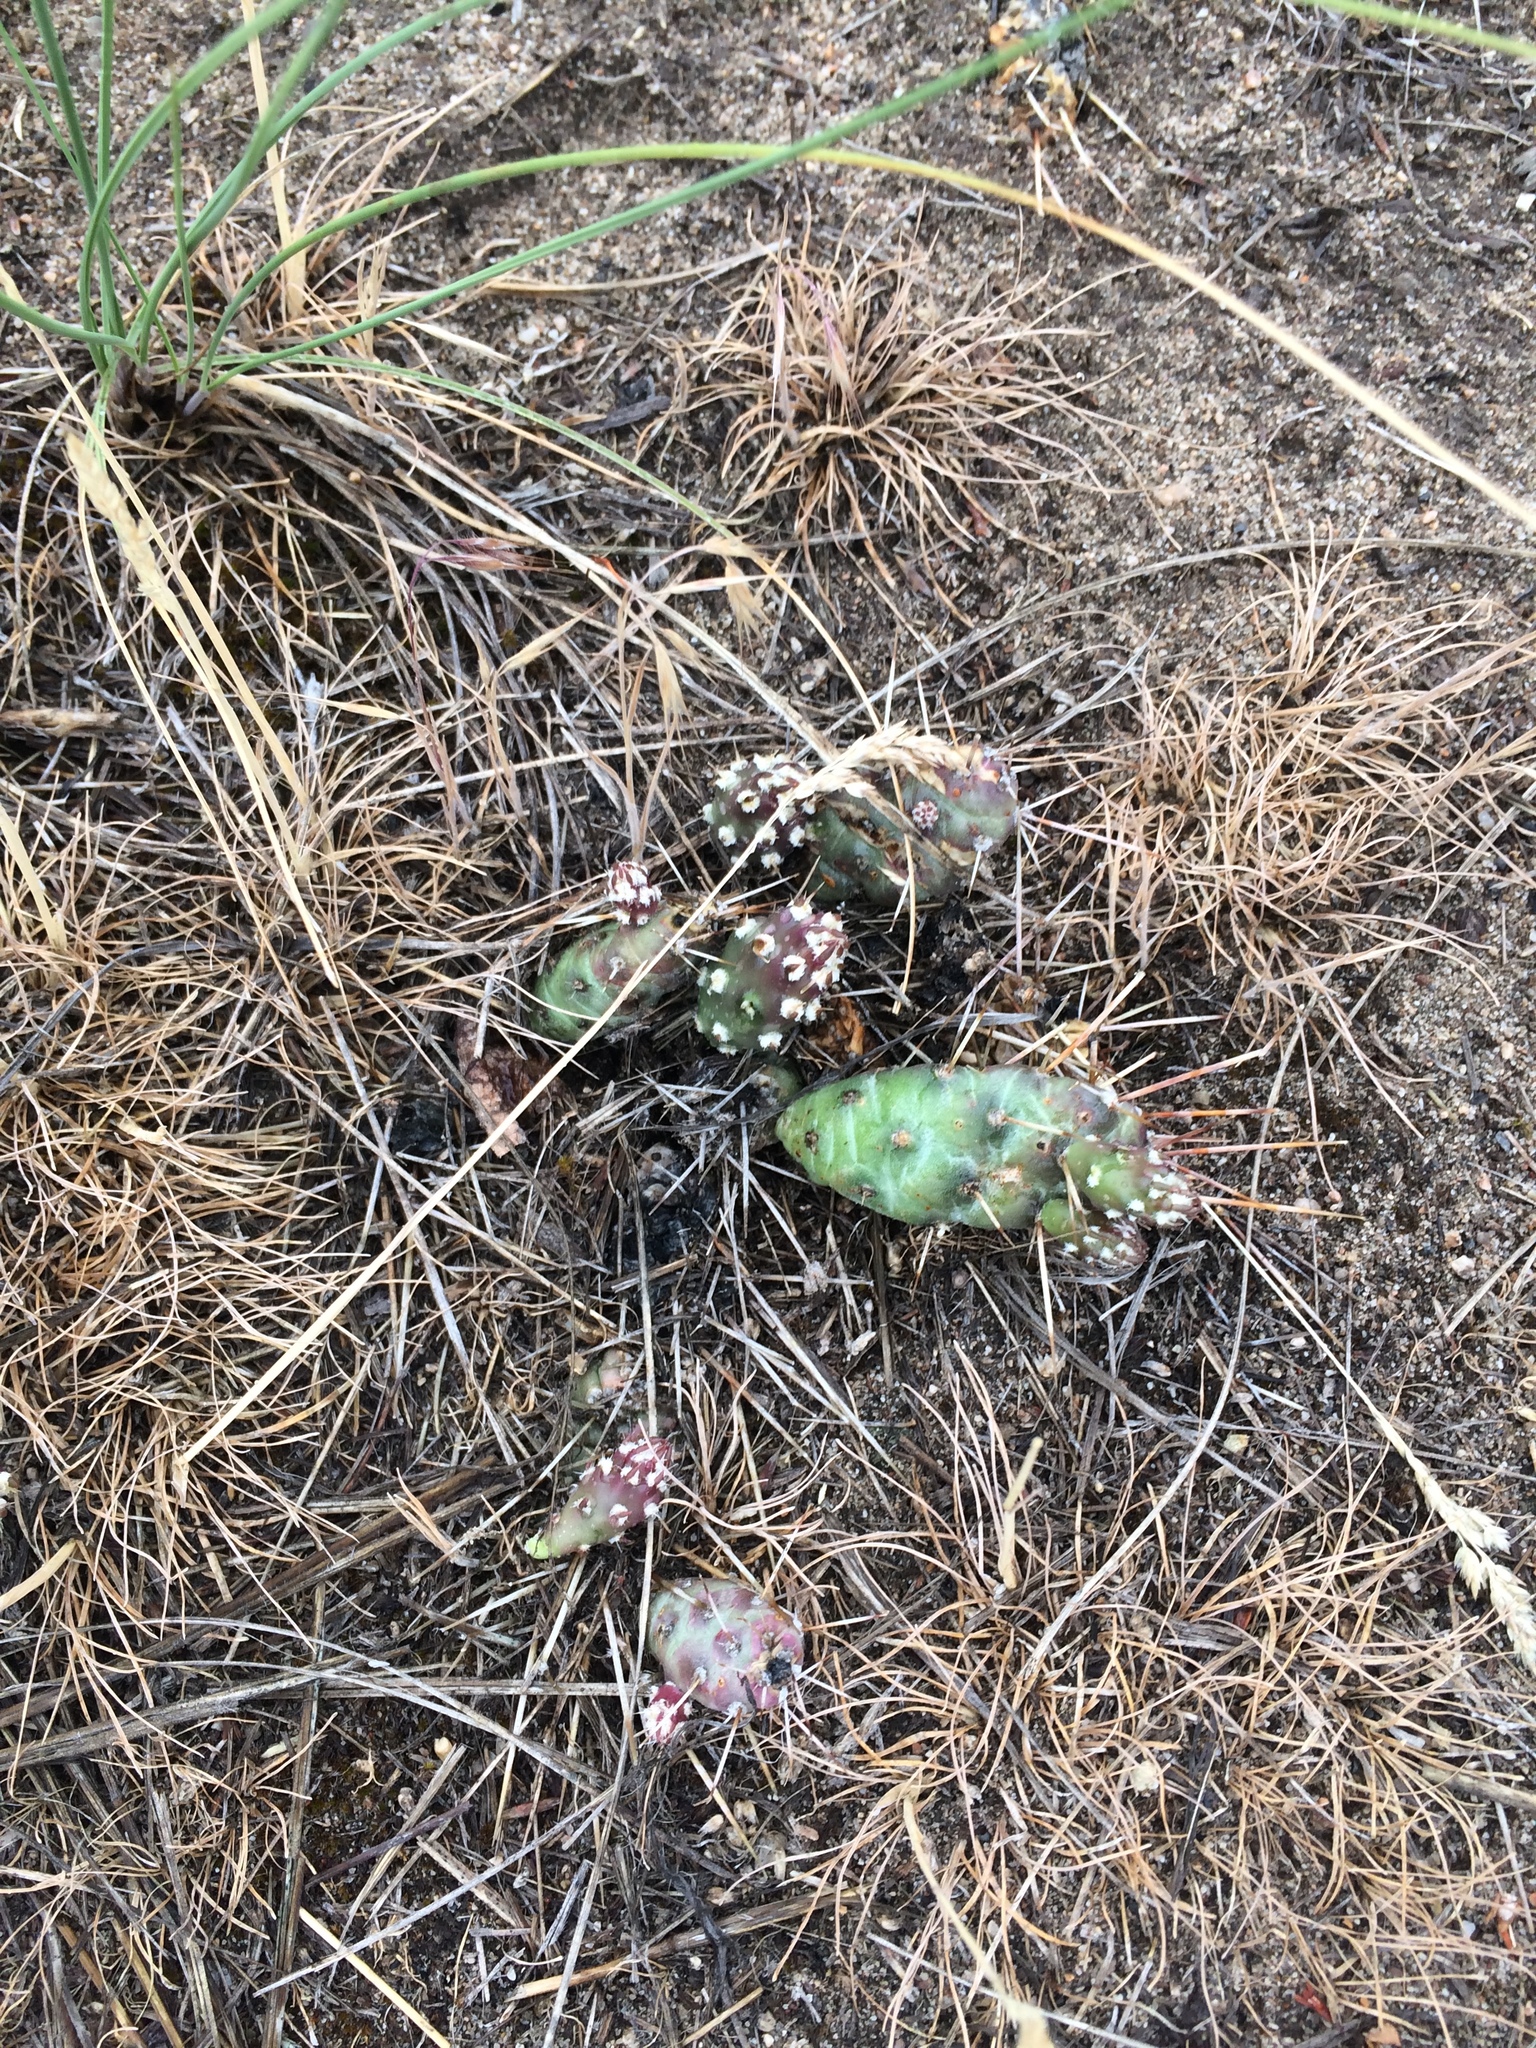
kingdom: Plantae
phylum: Tracheophyta
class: Magnoliopsida
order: Caryophyllales
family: Cactaceae
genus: Opuntia
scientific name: Opuntia fragilis
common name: Brittle cactus
